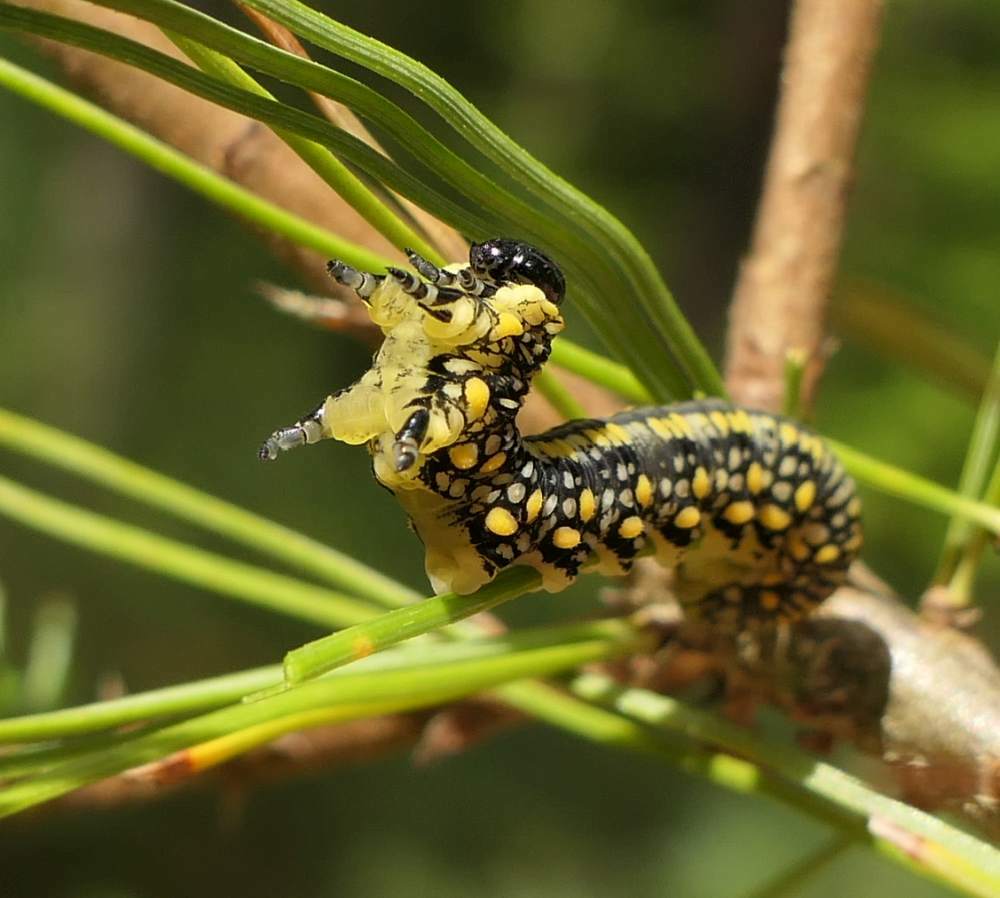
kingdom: Animalia
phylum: Arthropoda
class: Insecta
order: Hymenoptera
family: Diprionidae
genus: Diprion
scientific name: Diprion similis
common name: Pine sawfly
